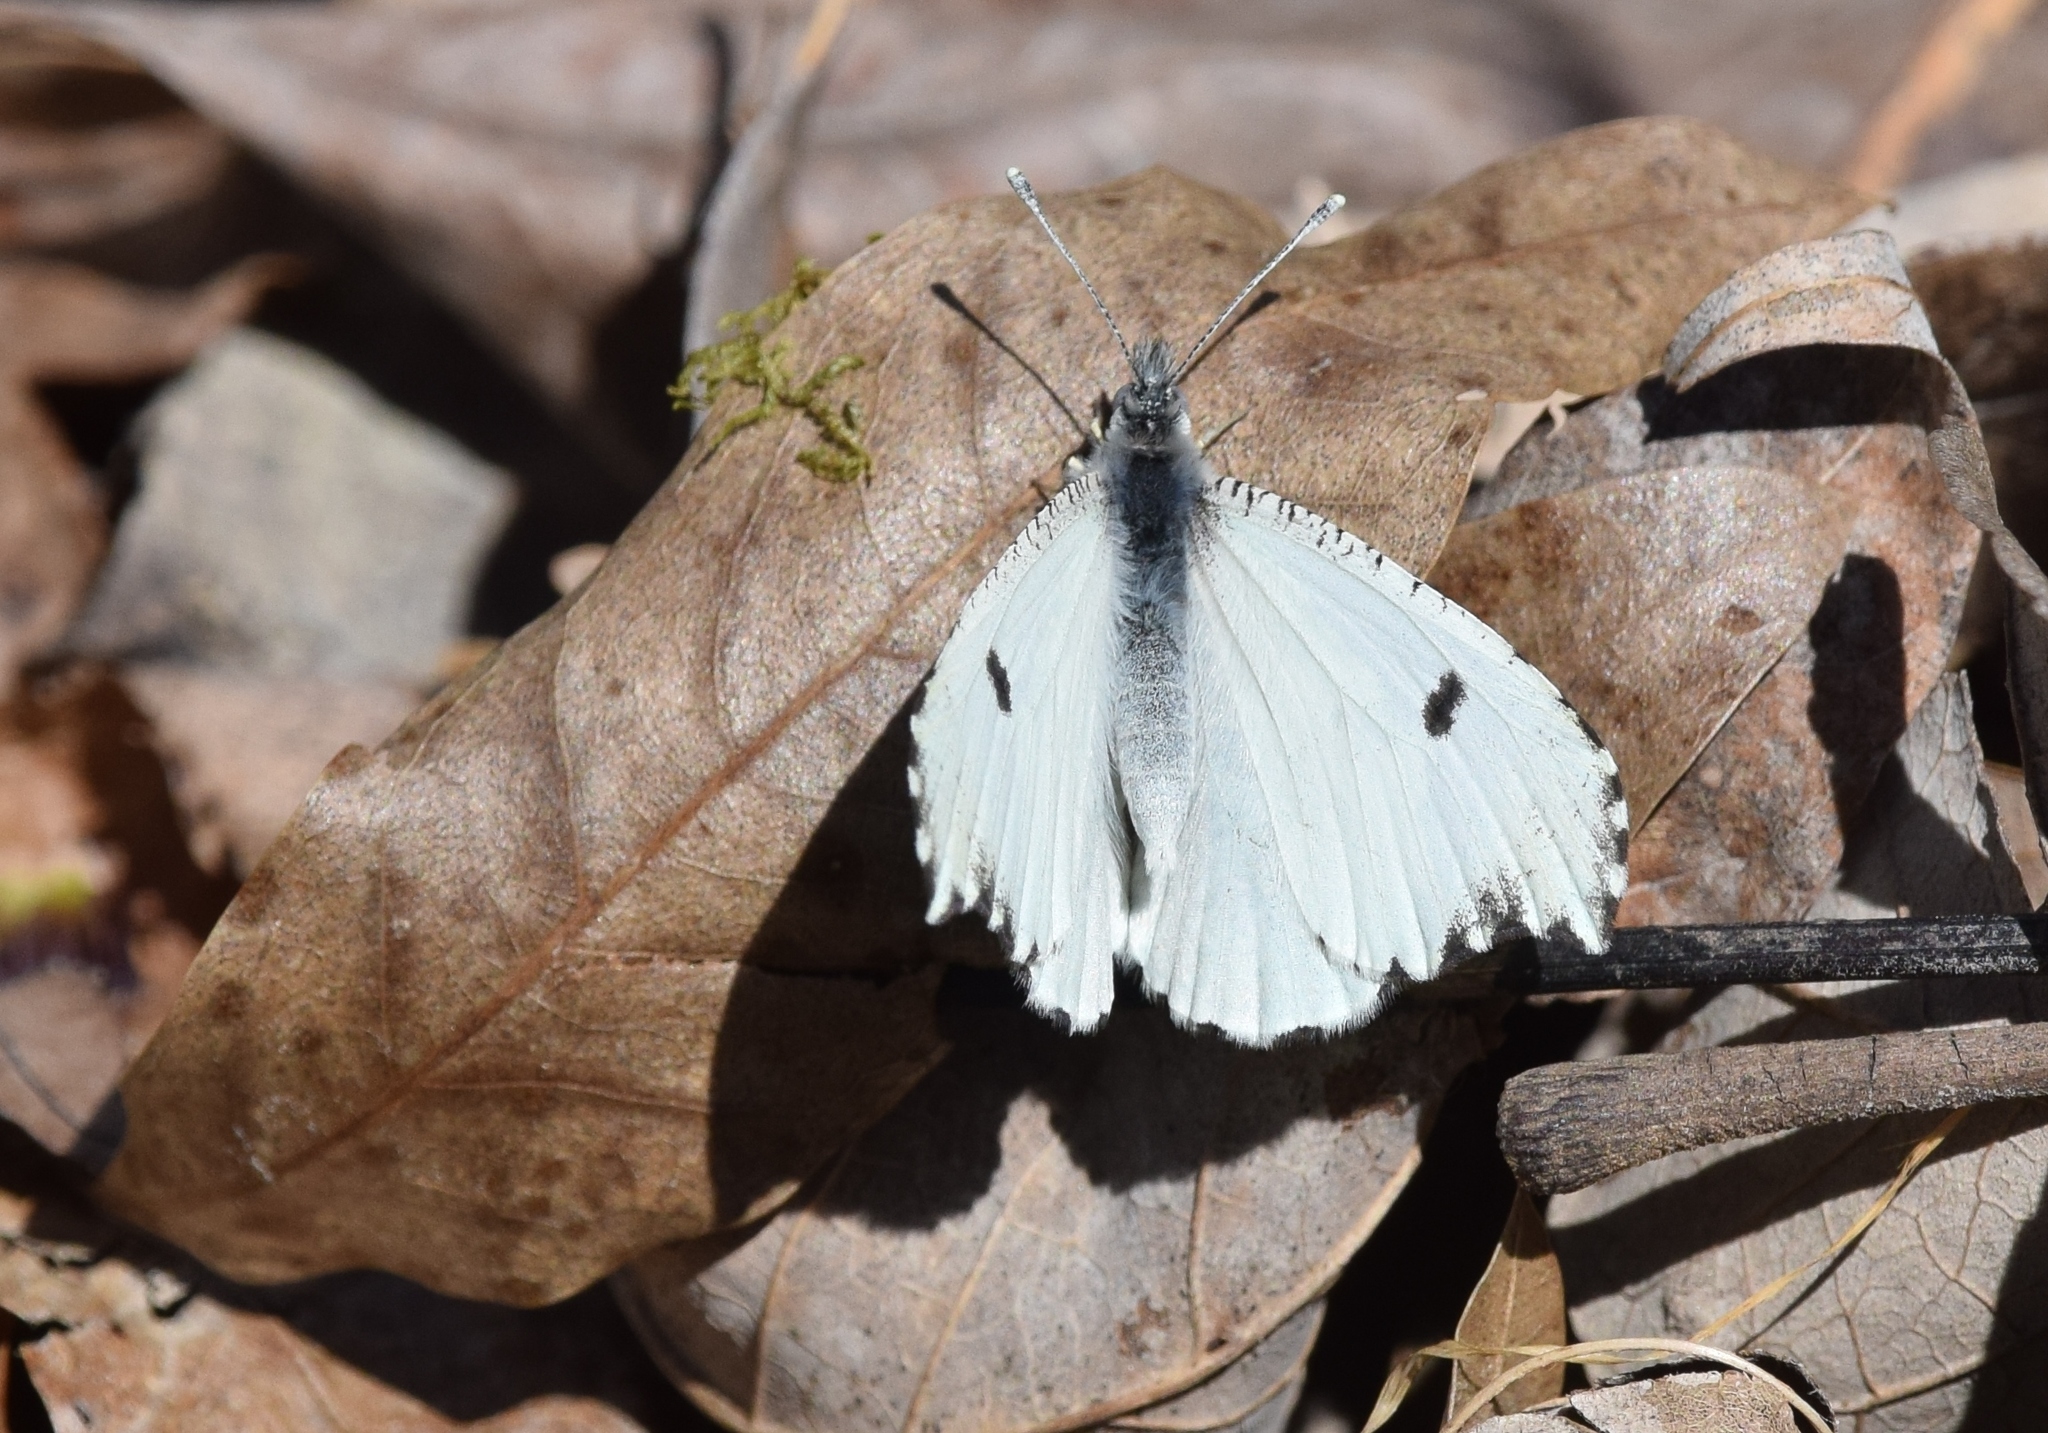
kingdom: Animalia
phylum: Arthropoda
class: Insecta
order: Lepidoptera
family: Pieridae
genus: Anthocharis
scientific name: Anthocharis midea
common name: Falcate orangetip
